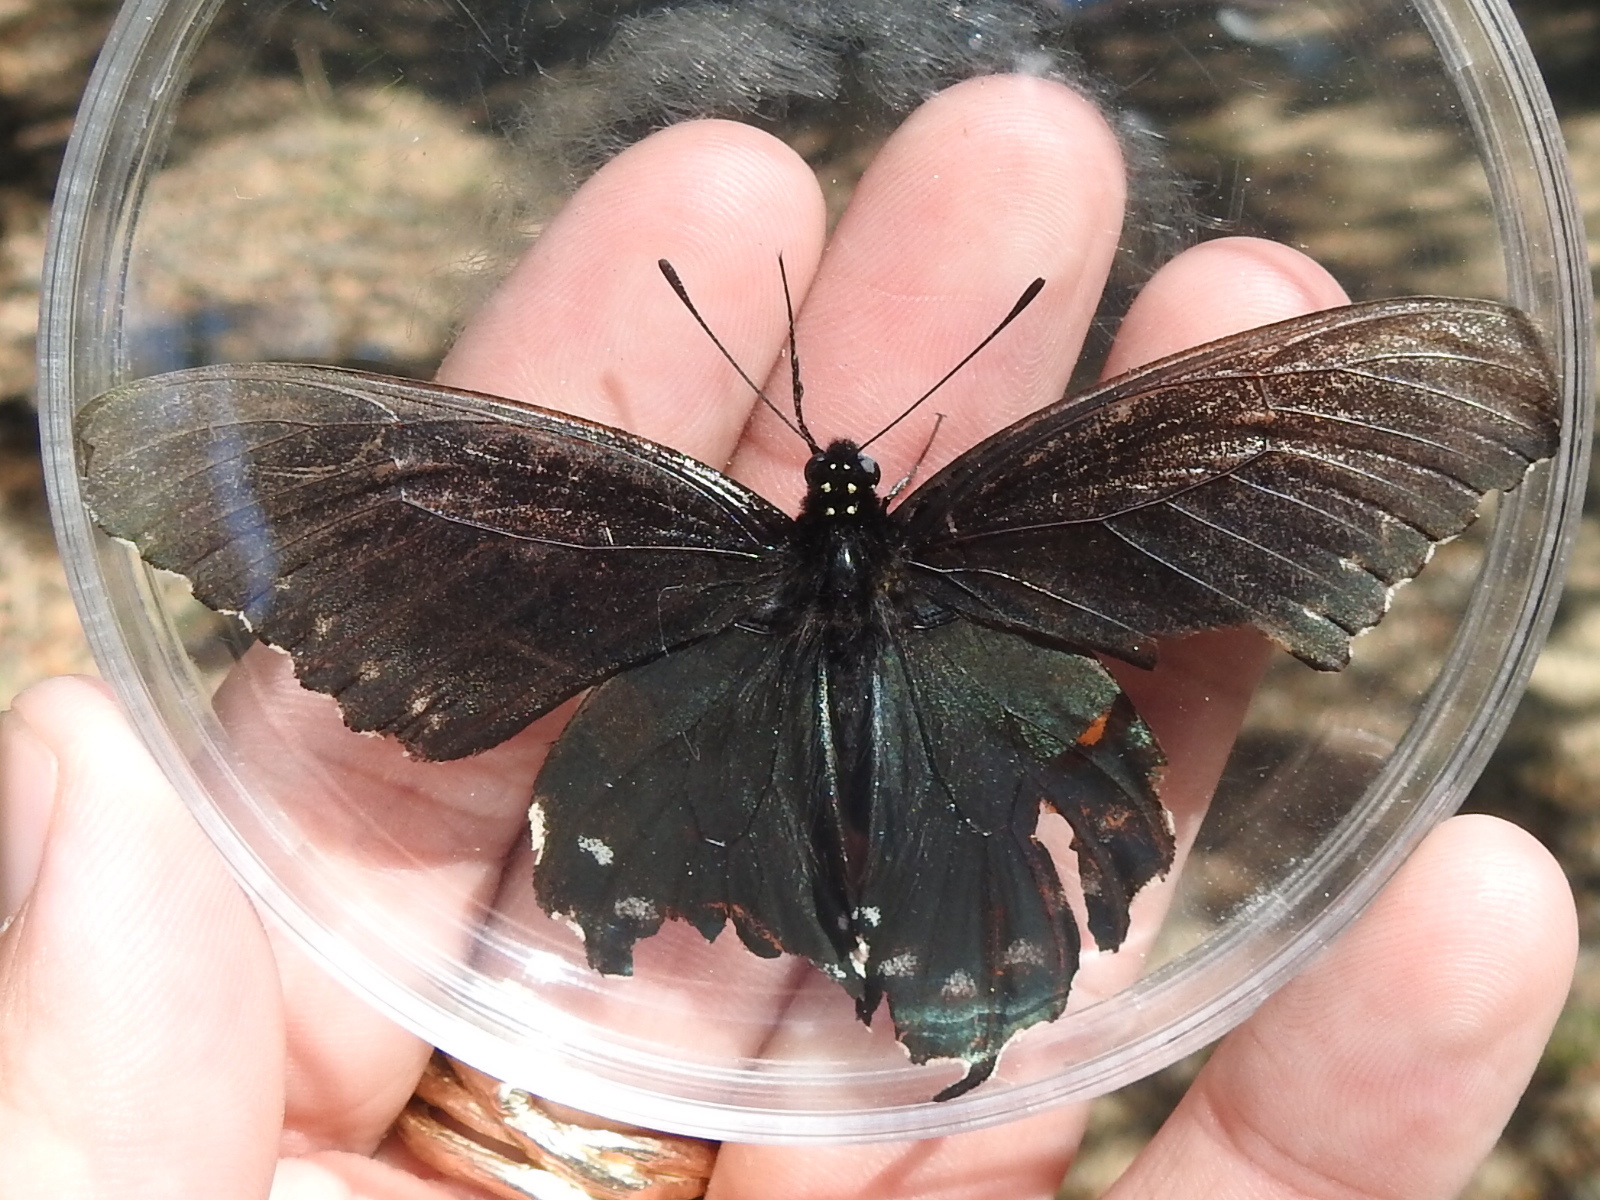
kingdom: Animalia
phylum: Arthropoda
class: Insecta
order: Lepidoptera
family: Papilionidae
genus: Battus
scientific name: Battus philenor
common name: Pipevine swallowtail
